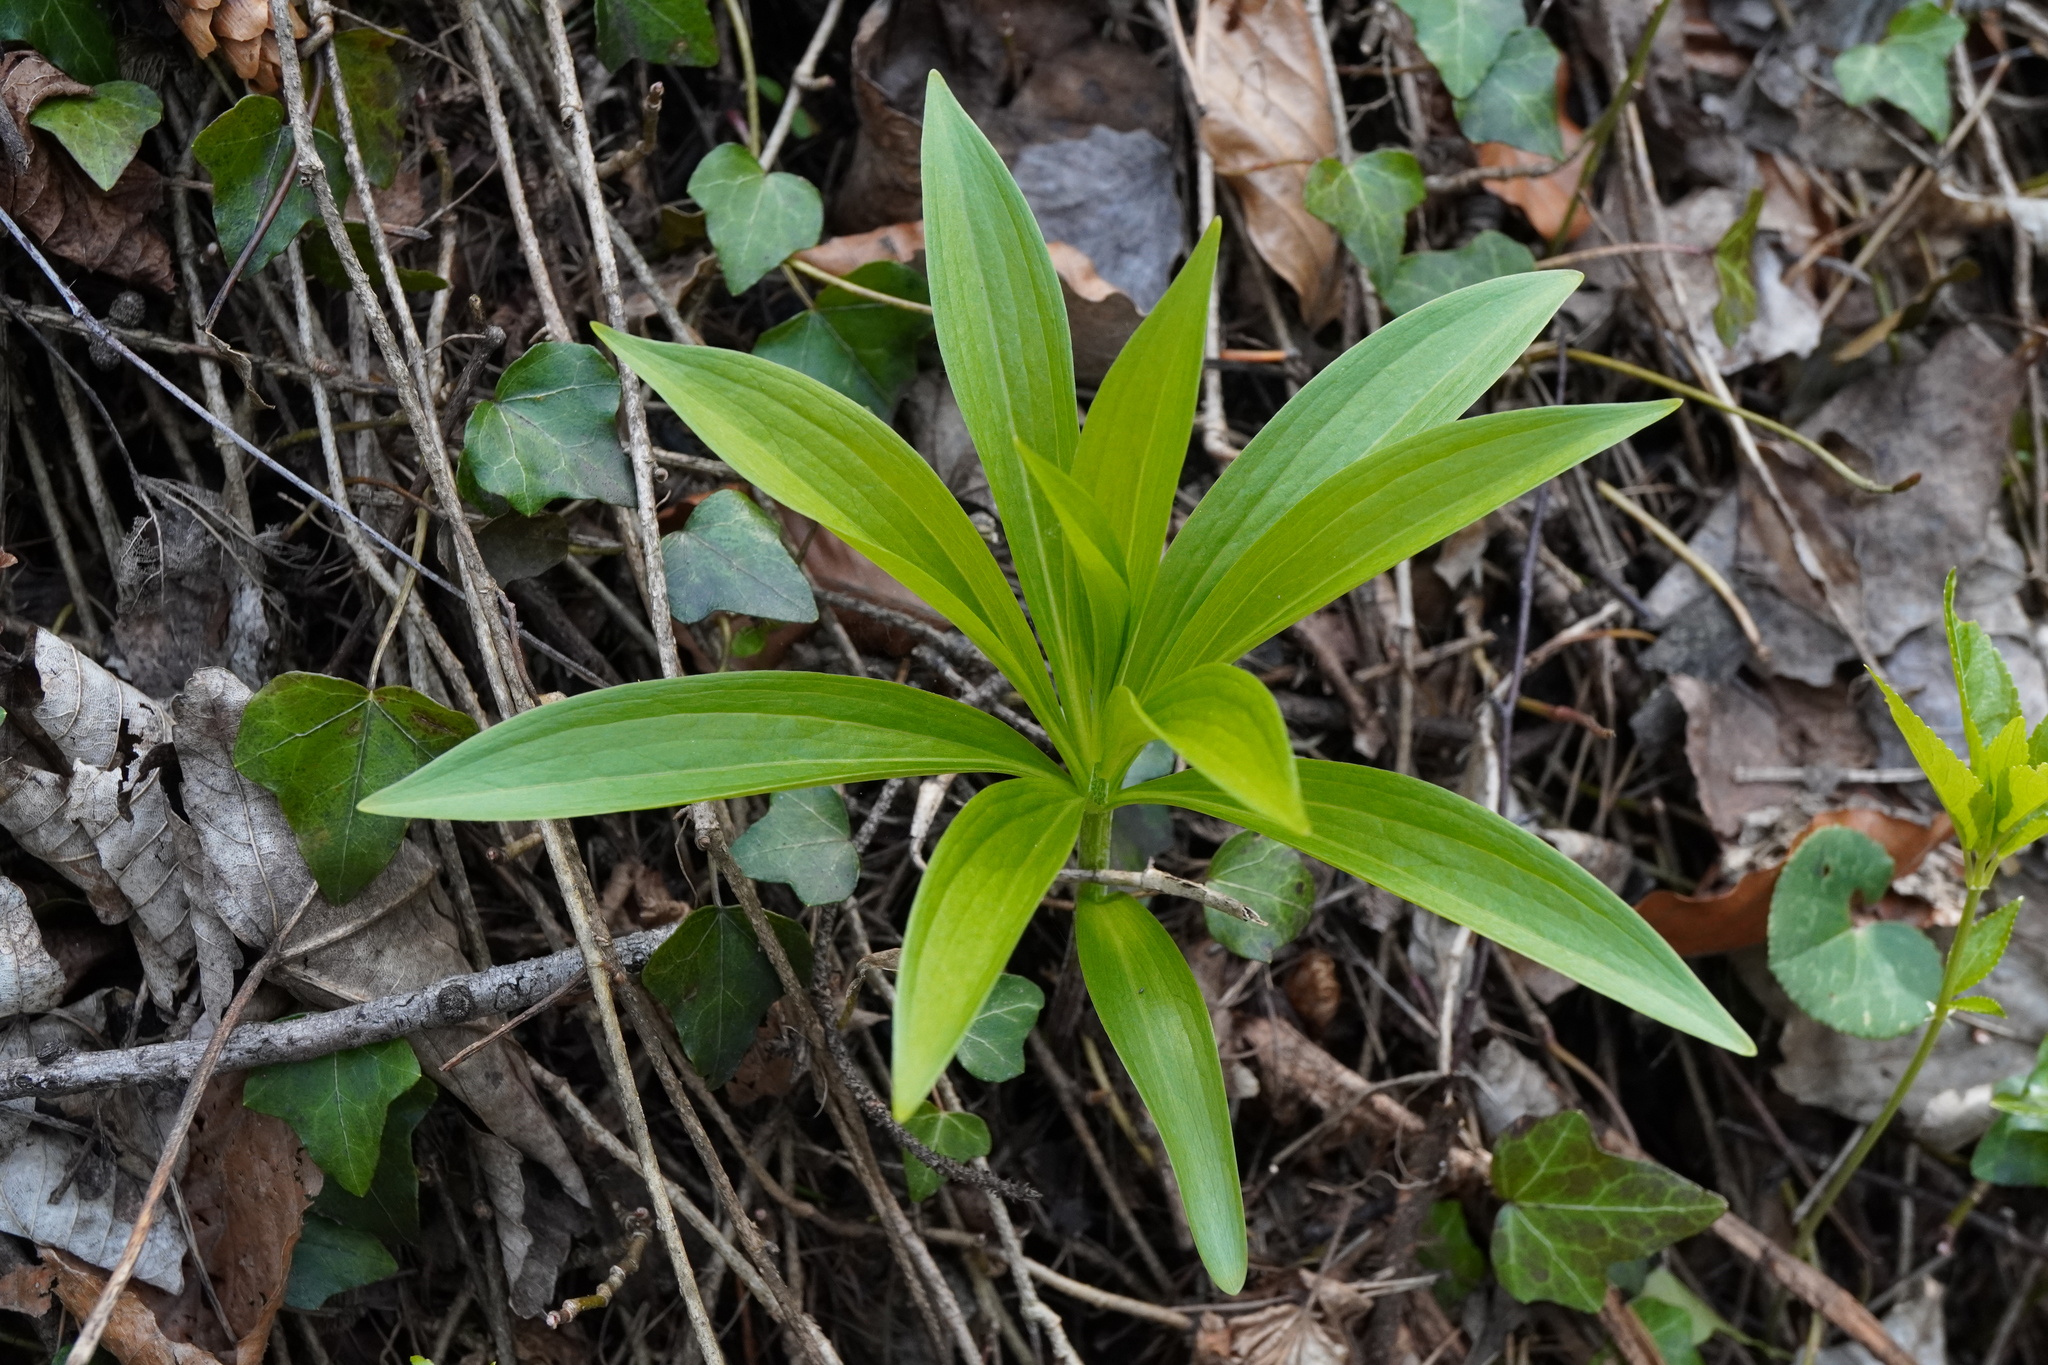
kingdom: Plantae
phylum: Tracheophyta
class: Liliopsida
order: Liliales
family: Liliaceae
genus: Lilium
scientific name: Lilium martagon
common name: Martagon lily
